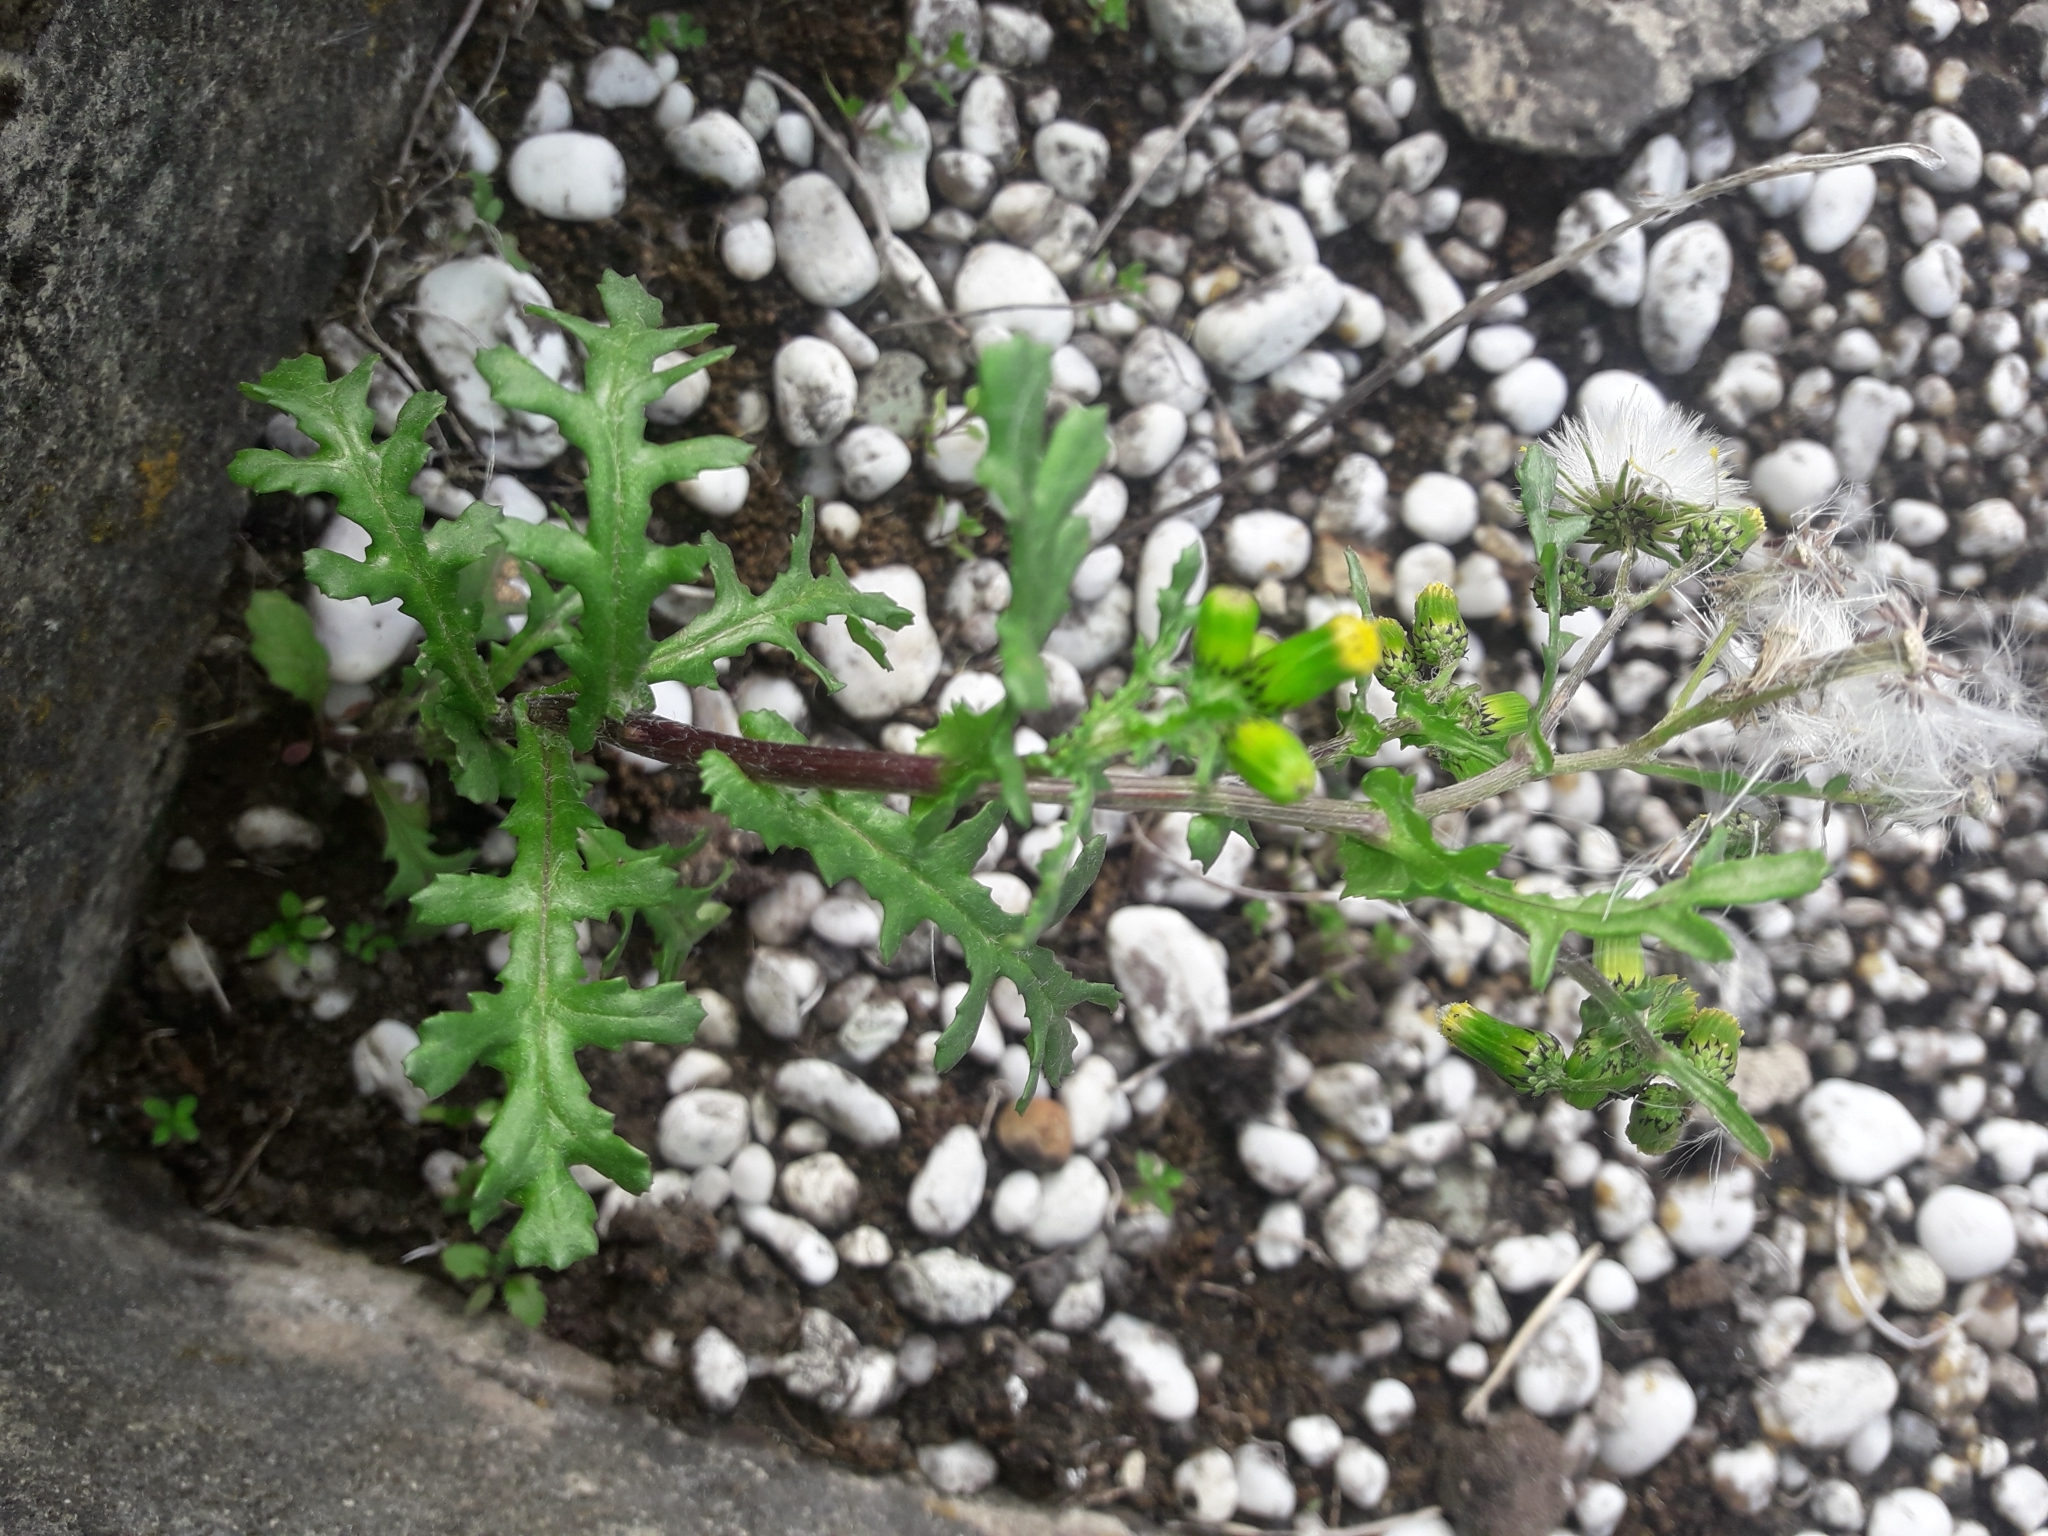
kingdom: Plantae
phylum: Tracheophyta
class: Magnoliopsida
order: Asterales
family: Asteraceae
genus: Senecio
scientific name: Senecio vulgaris
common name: Old-man-in-the-spring
